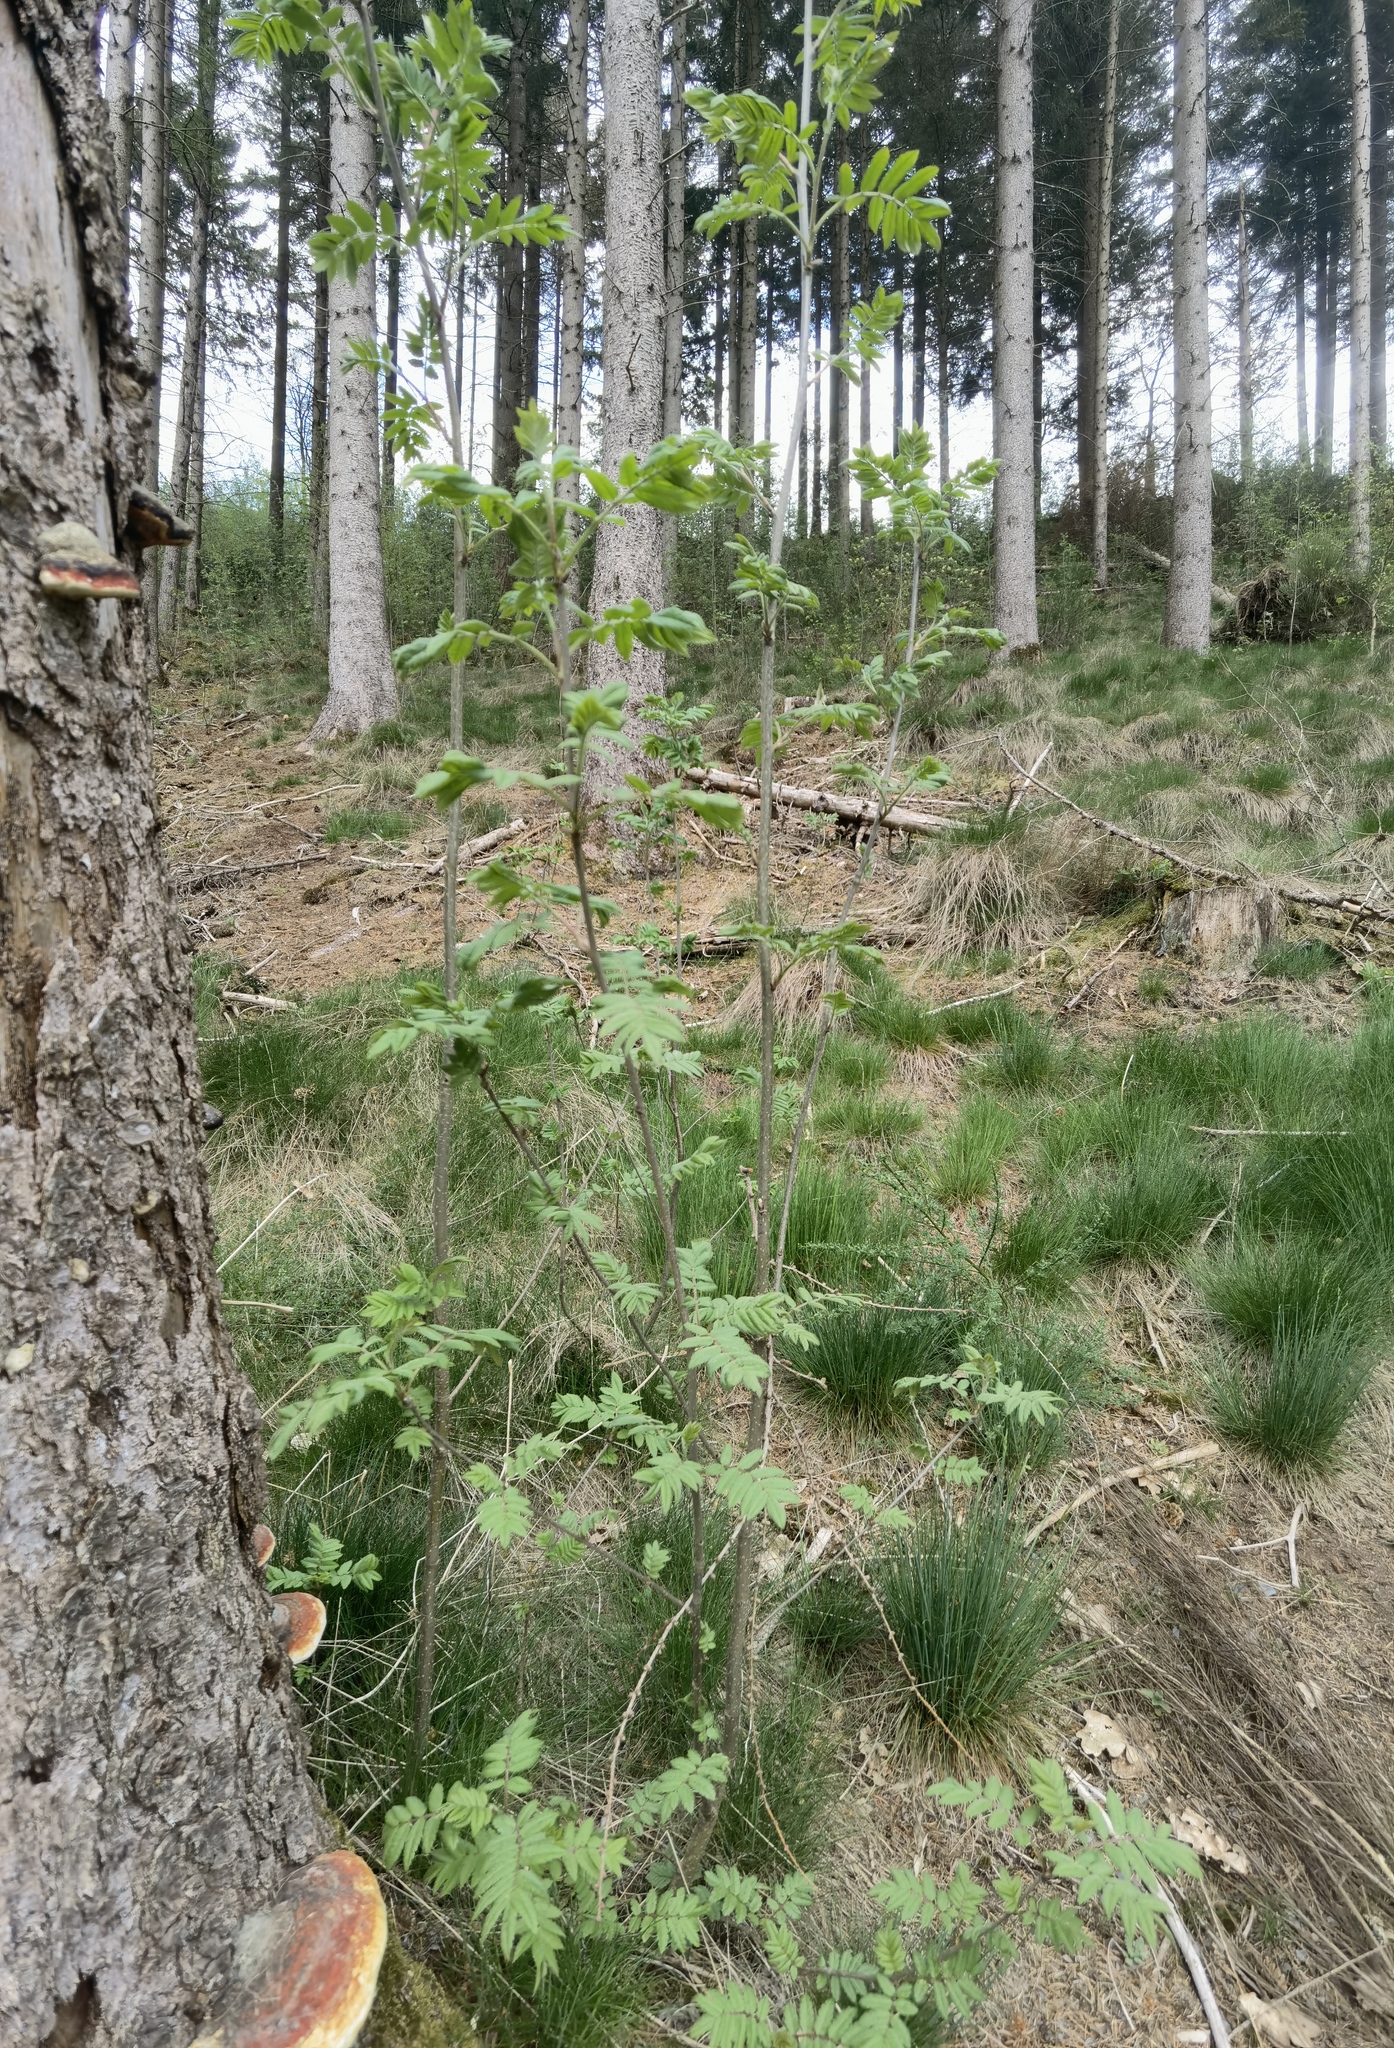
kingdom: Plantae
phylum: Tracheophyta
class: Magnoliopsida
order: Rosales
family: Rosaceae
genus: Sorbus
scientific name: Sorbus aucuparia
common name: Rowan
